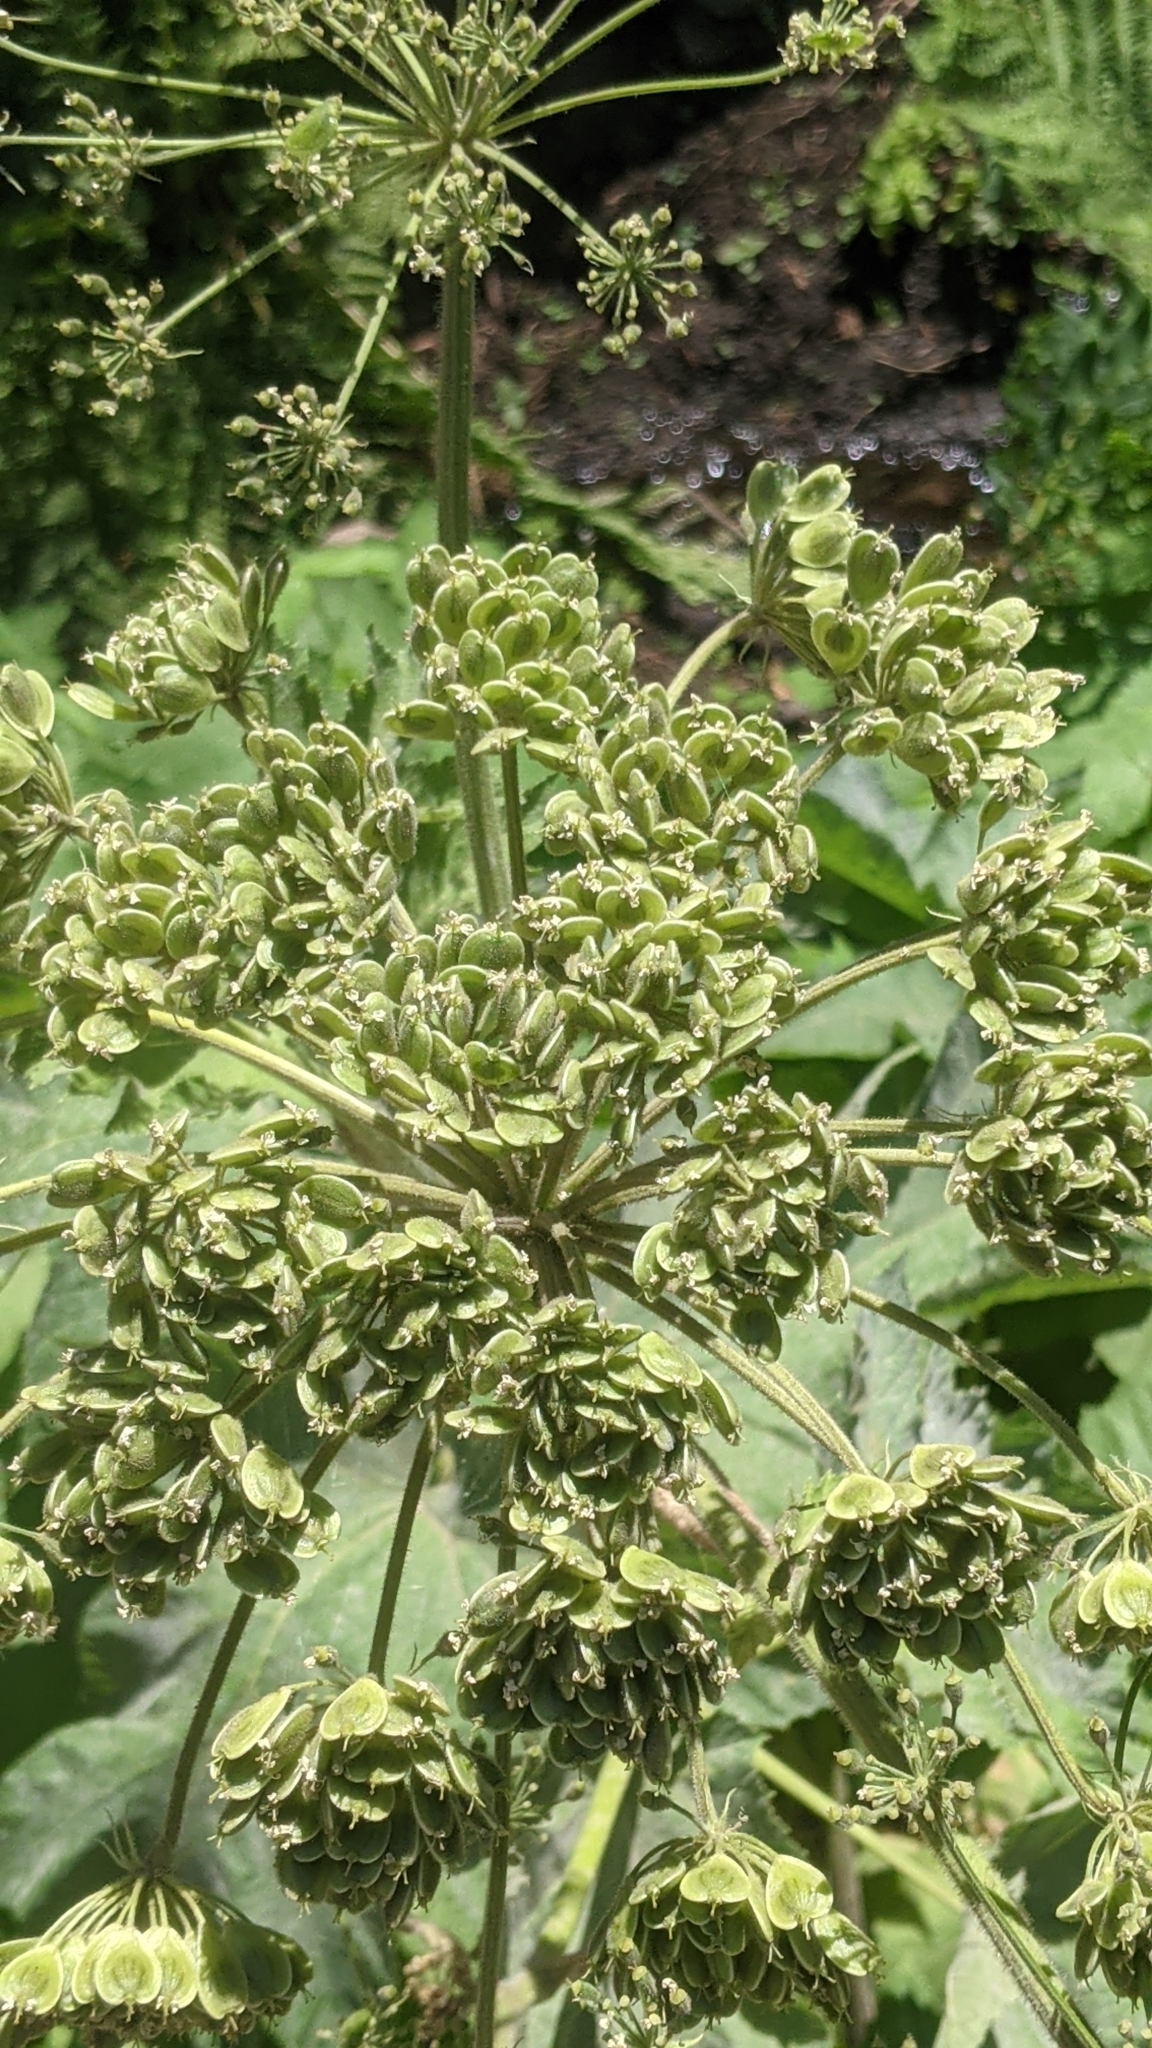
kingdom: Plantae
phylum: Tracheophyta
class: Magnoliopsida
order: Apiales
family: Apiaceae
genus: Heracleum
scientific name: Heracleum maximum
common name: American cow parsnip
